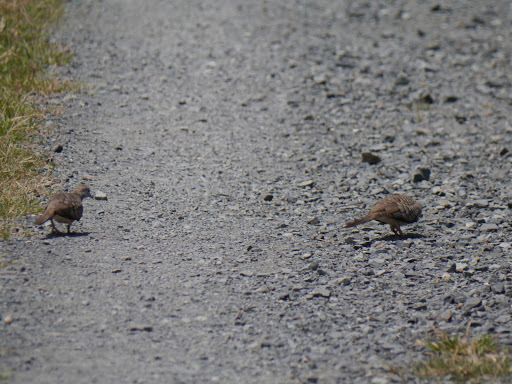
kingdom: Animalia
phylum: Chordata
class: Aves
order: Columbiformes
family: Columbidae
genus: Geopelia
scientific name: Geopelia striata
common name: Zebra dove
